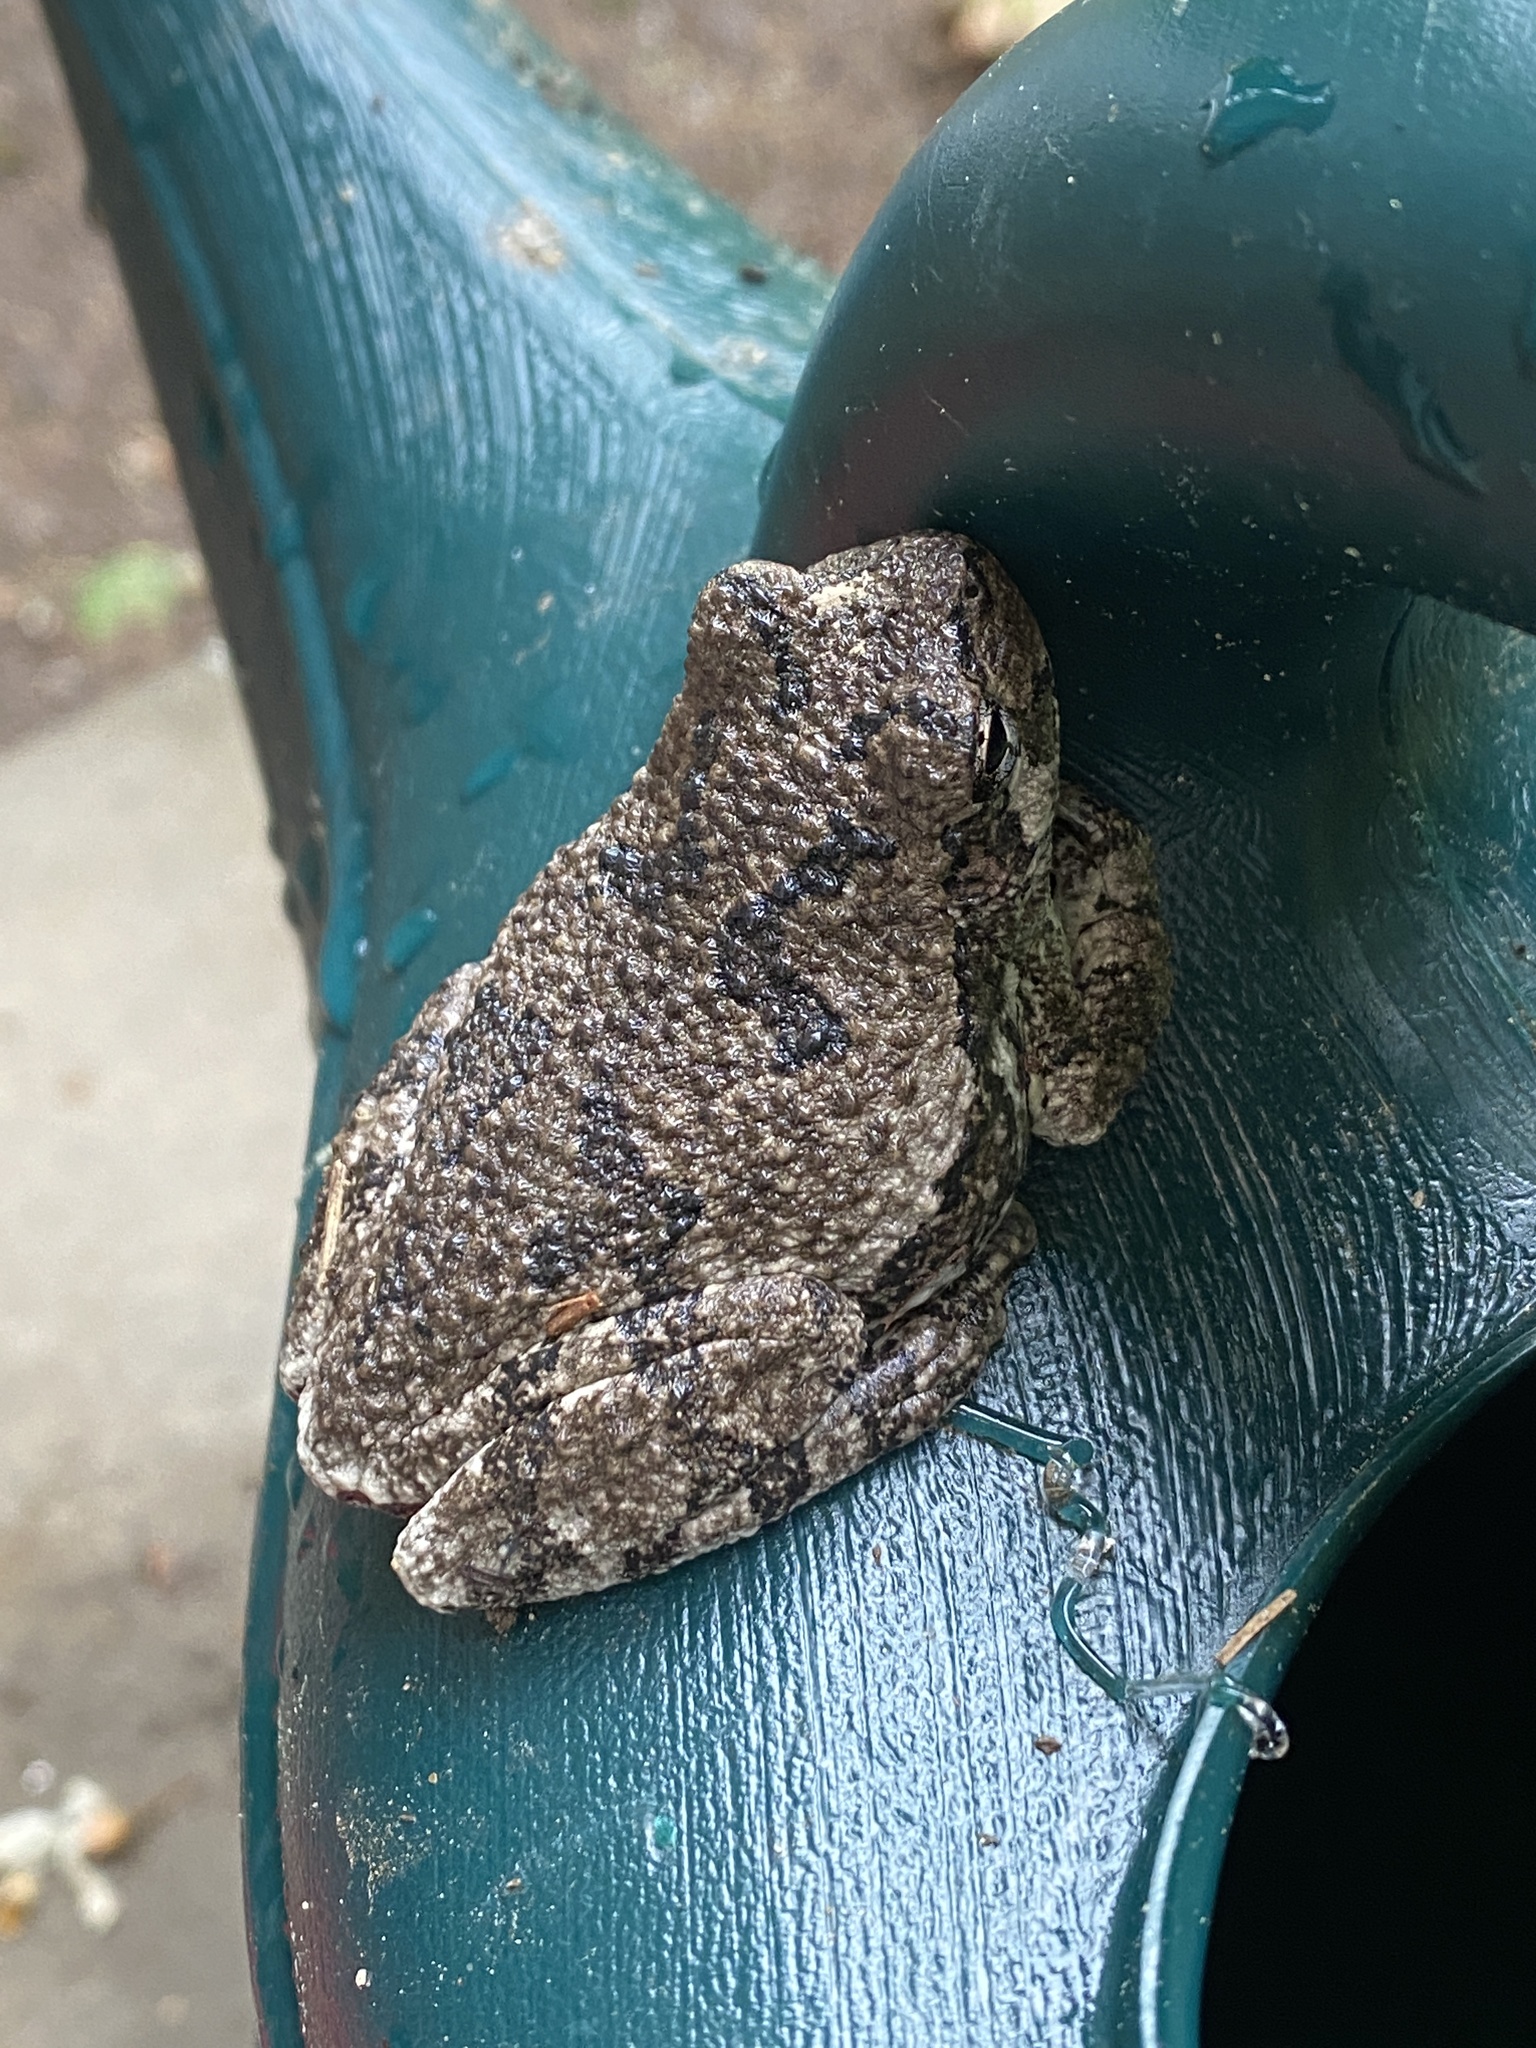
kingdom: Animalia
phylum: Chordata
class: Amphibia
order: Anura
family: Hylidae
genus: Dryophytes
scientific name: Dryophytes versicolor
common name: Gray treefrog
